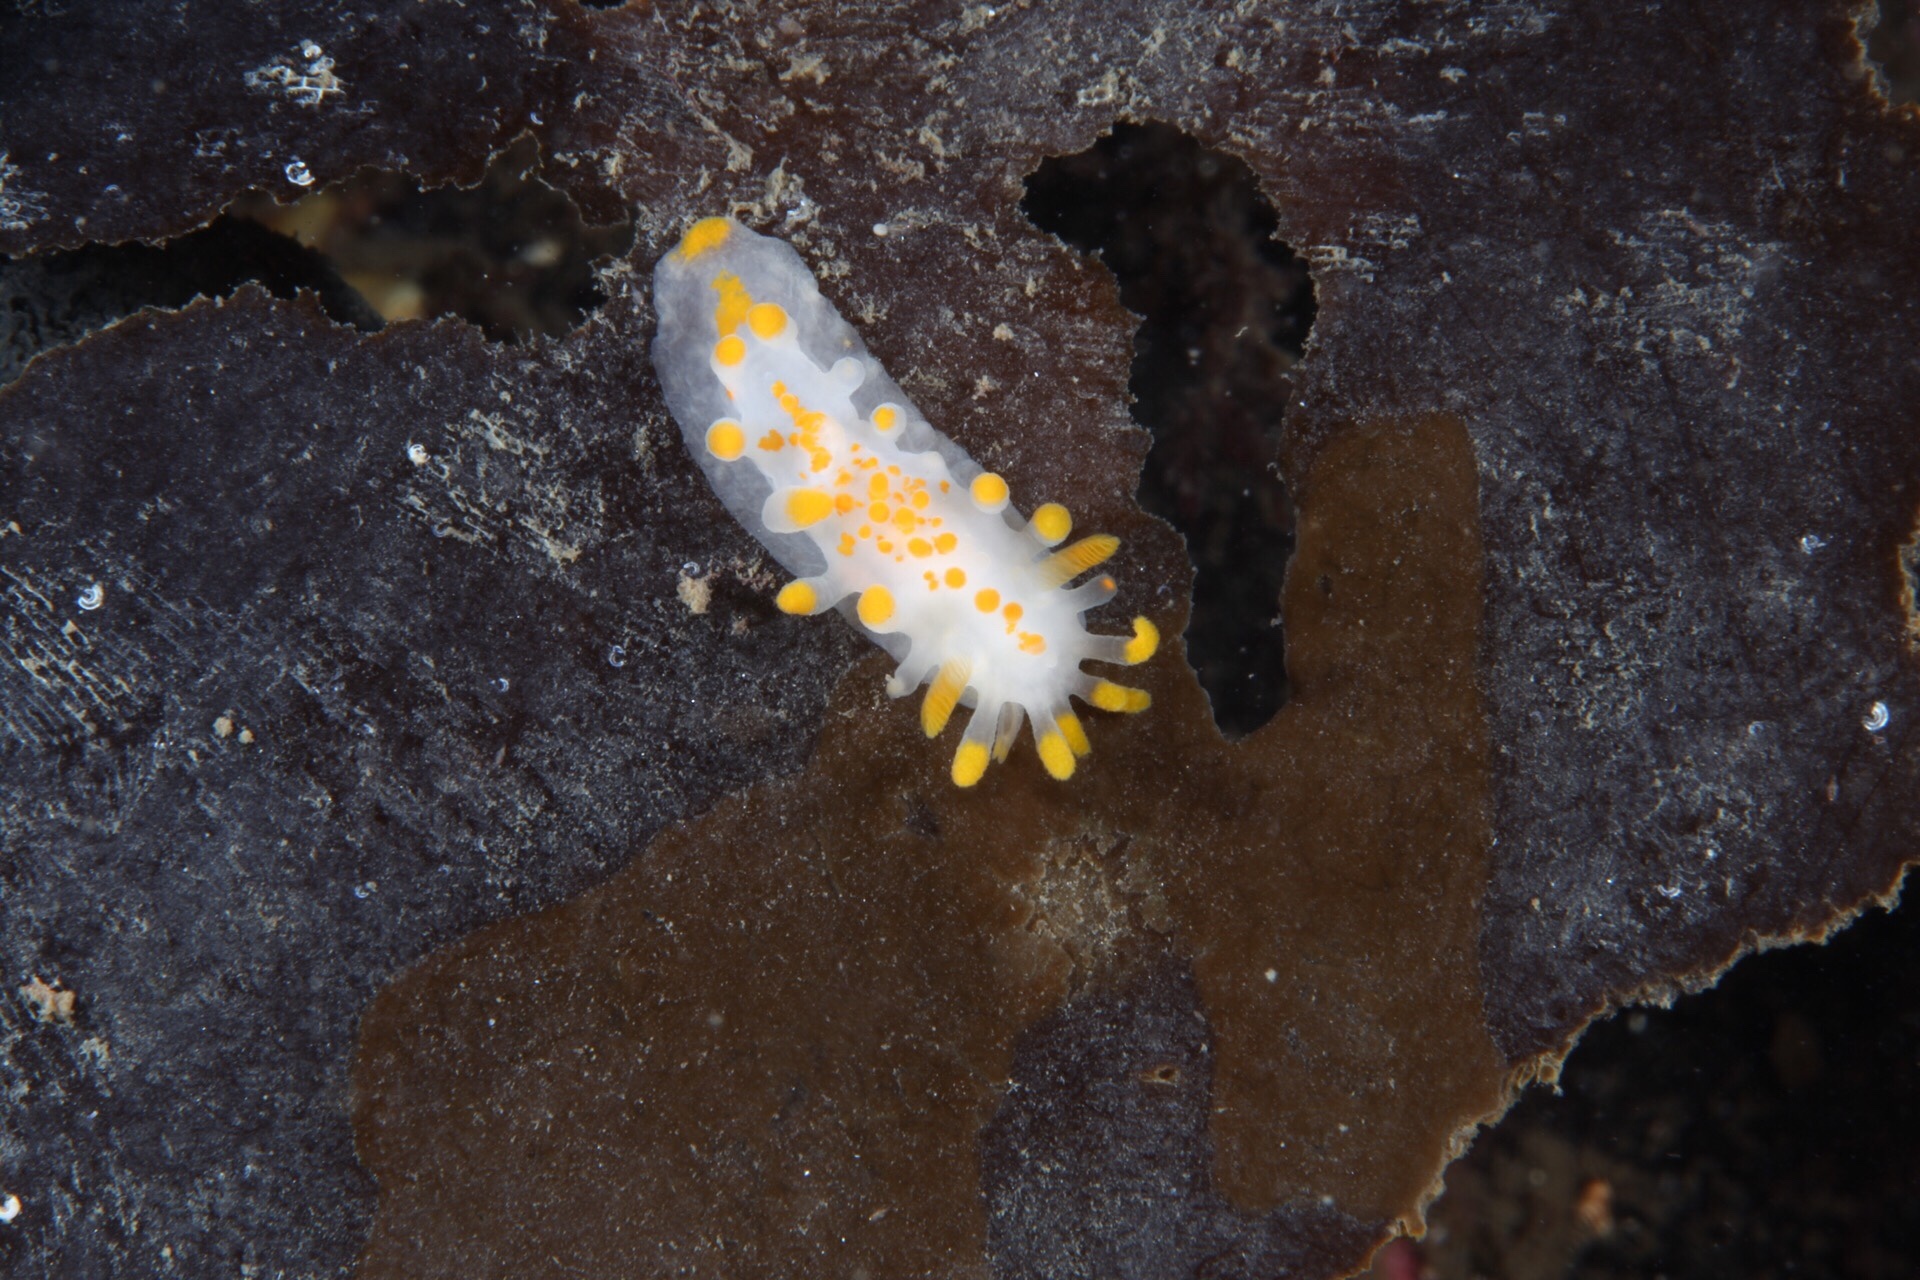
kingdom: Animalia
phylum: Mollusca
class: Gastropoda
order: Nudibranchia
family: Polyceridae
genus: Limacia
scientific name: Limacia clavigera
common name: Orange-clubbed sea slug
